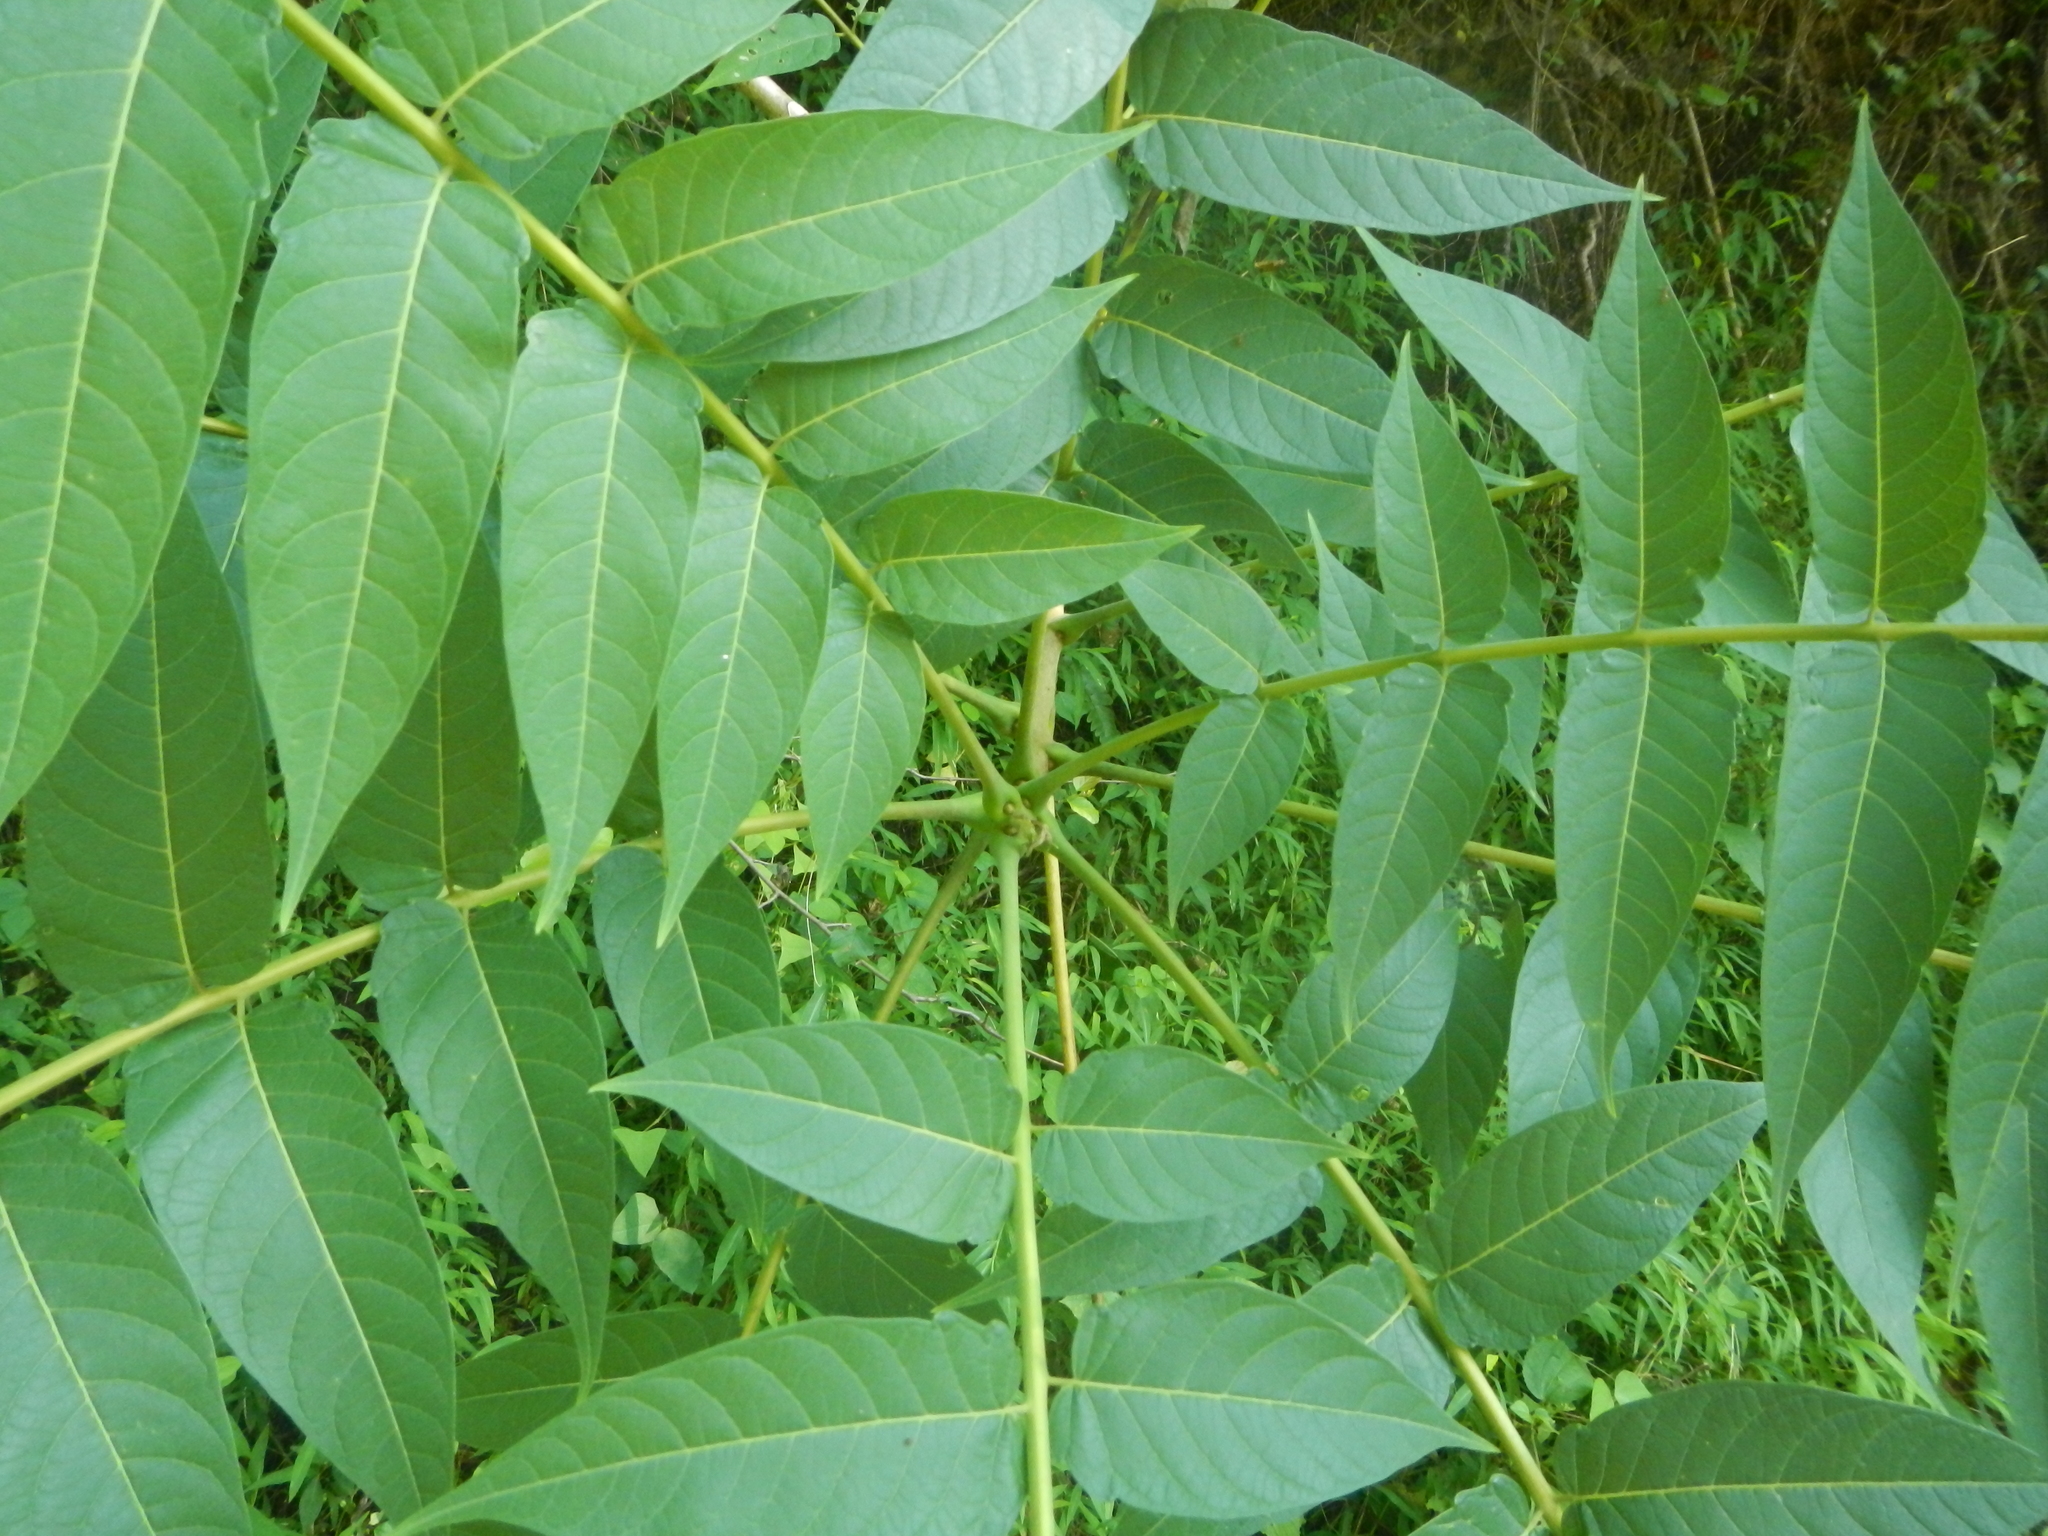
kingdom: Plantae
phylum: Tracheophyta
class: Magnoliopsida
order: Sapindales
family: Simaroubaceae
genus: Ailanthus
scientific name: Ailanthus altissima
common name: Tree-of-heaven
